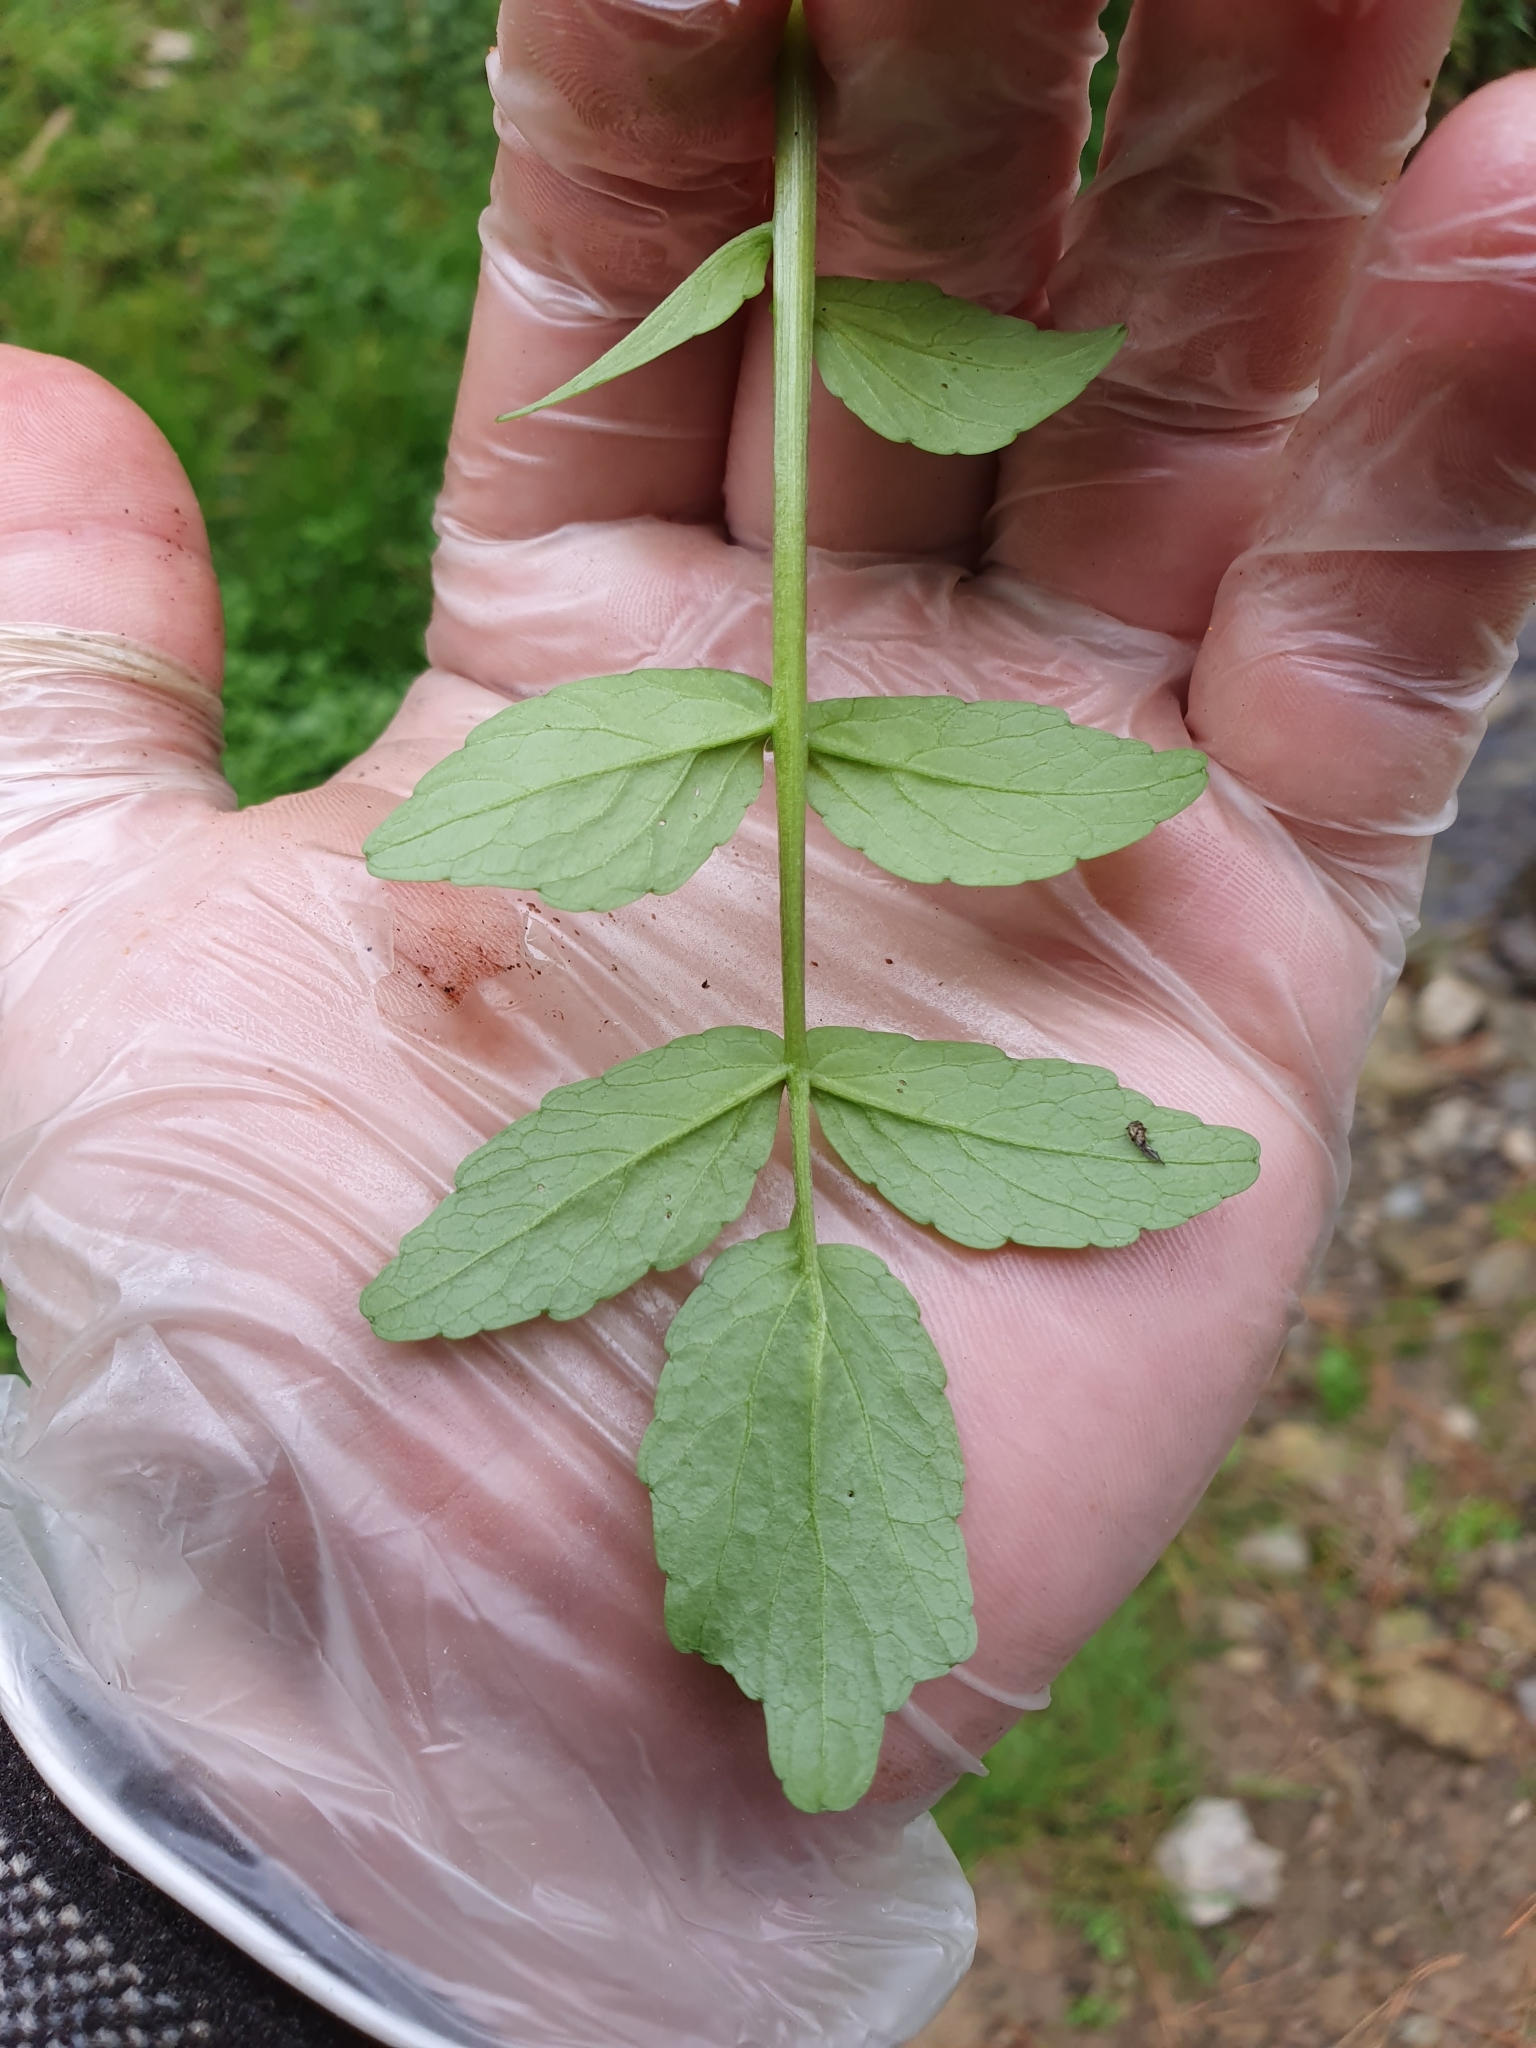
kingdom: Plantae
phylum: Tracheophyta
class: Magnoliopsida
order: Brassicales
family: Brassicaceae
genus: Nasturtium
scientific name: Nasturtium officinale
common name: Watercress
